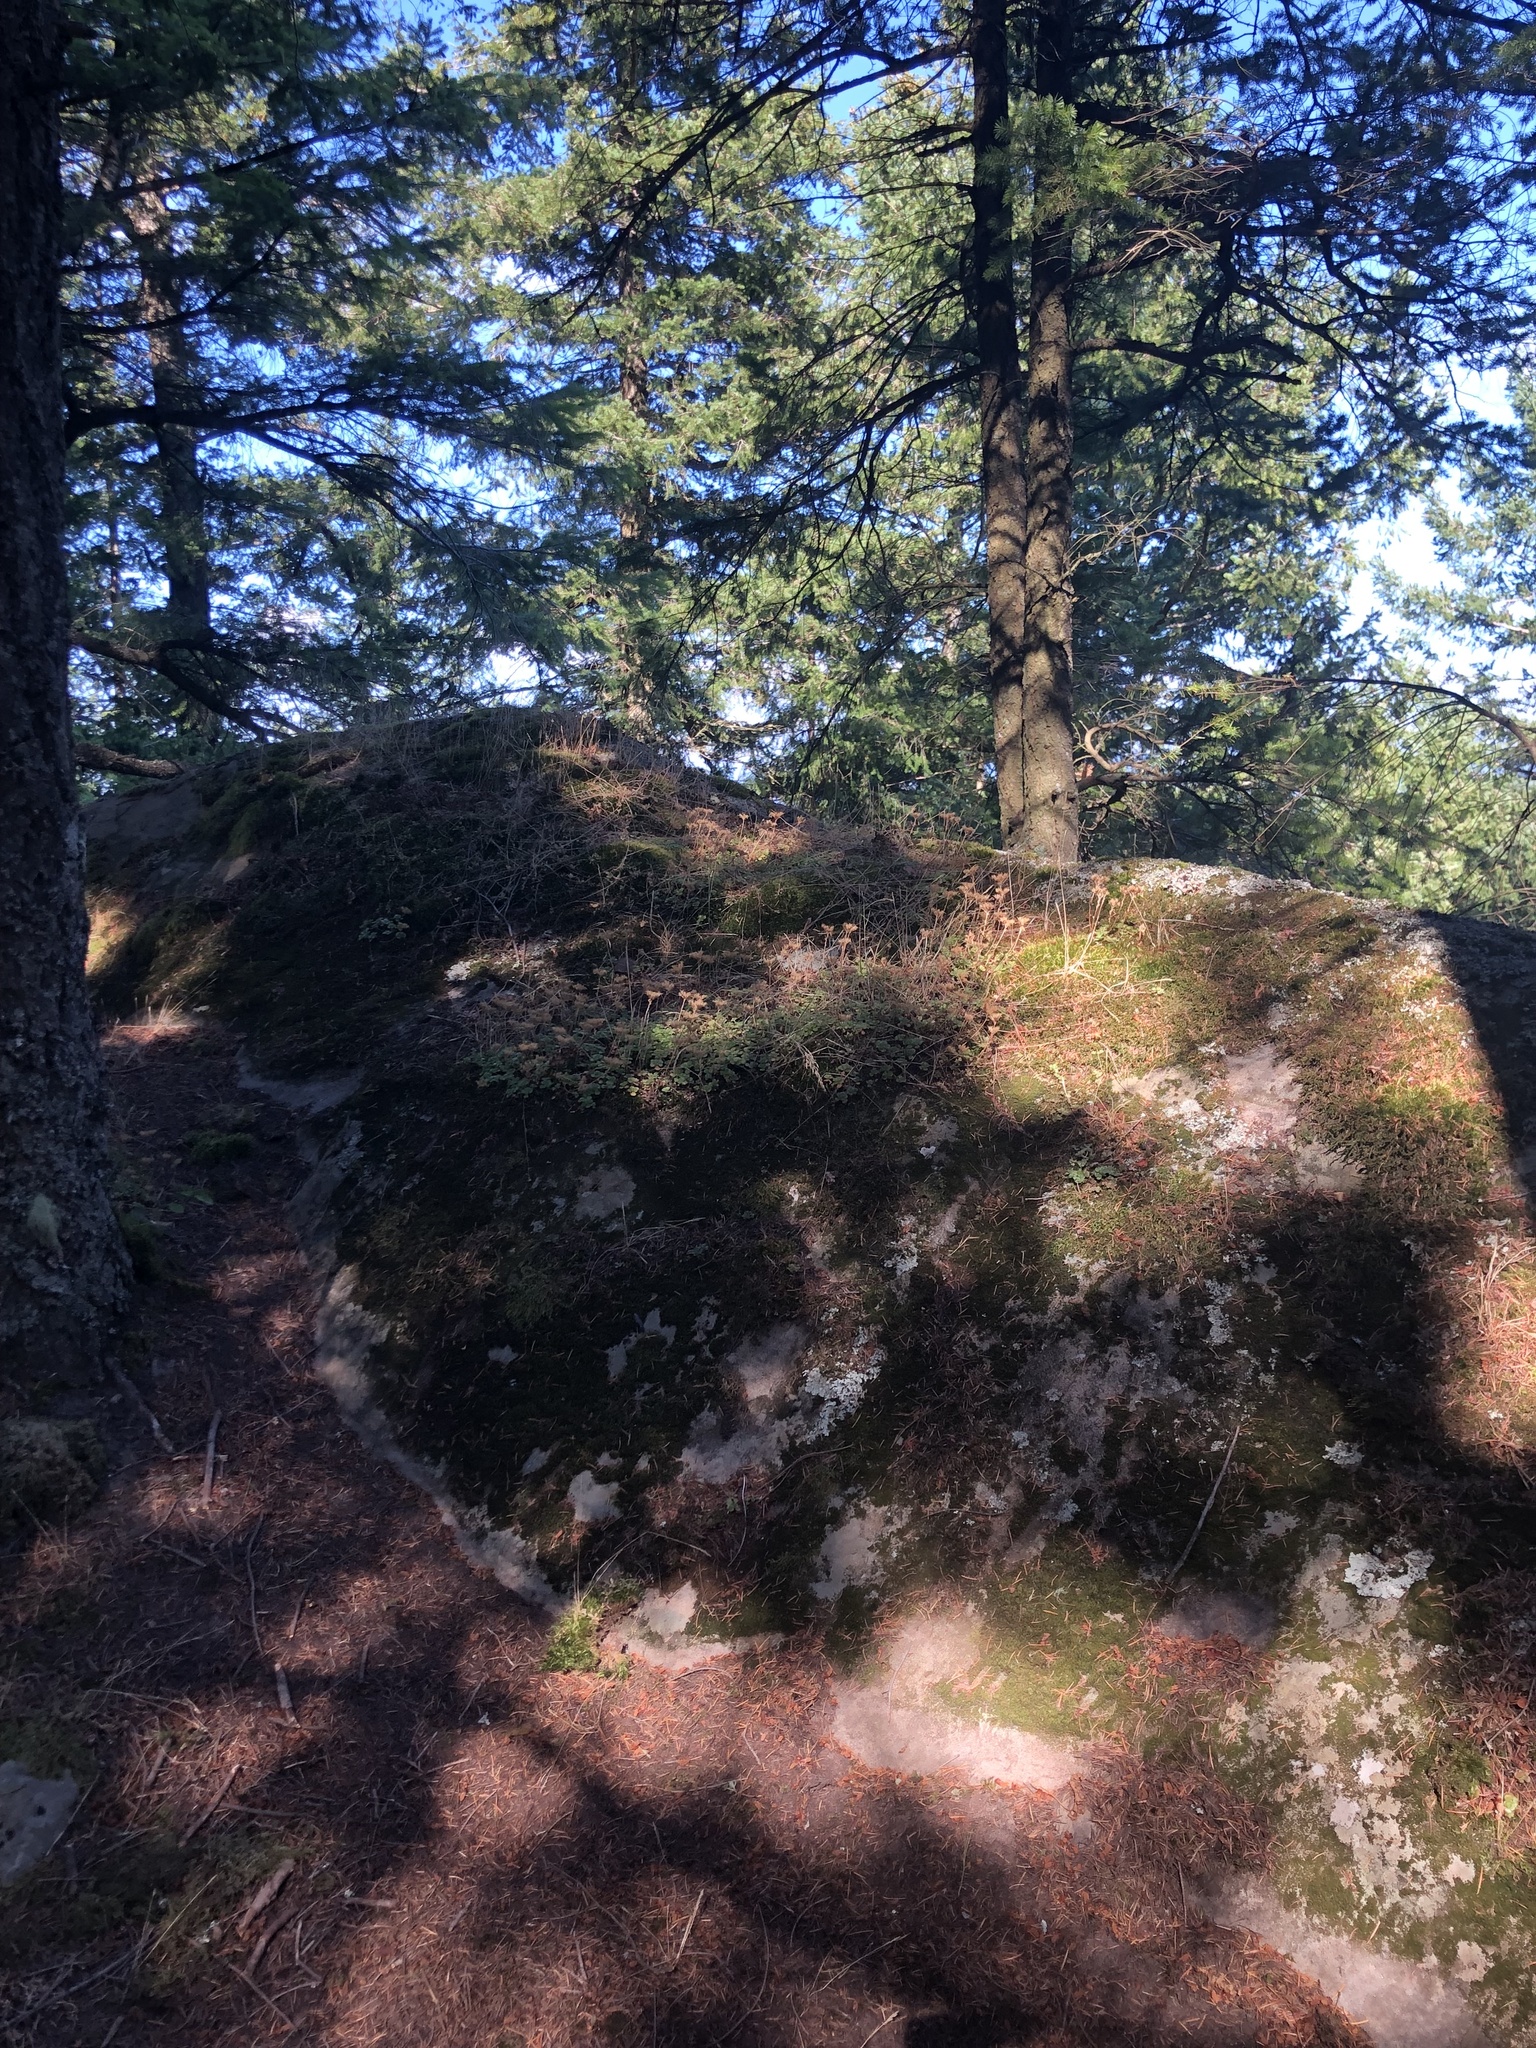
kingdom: Plantae
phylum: Tracheophyta
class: Magnoliopsida
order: Saxifragales
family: Crassulaceae
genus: Sedum
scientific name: Sedum oreganum
